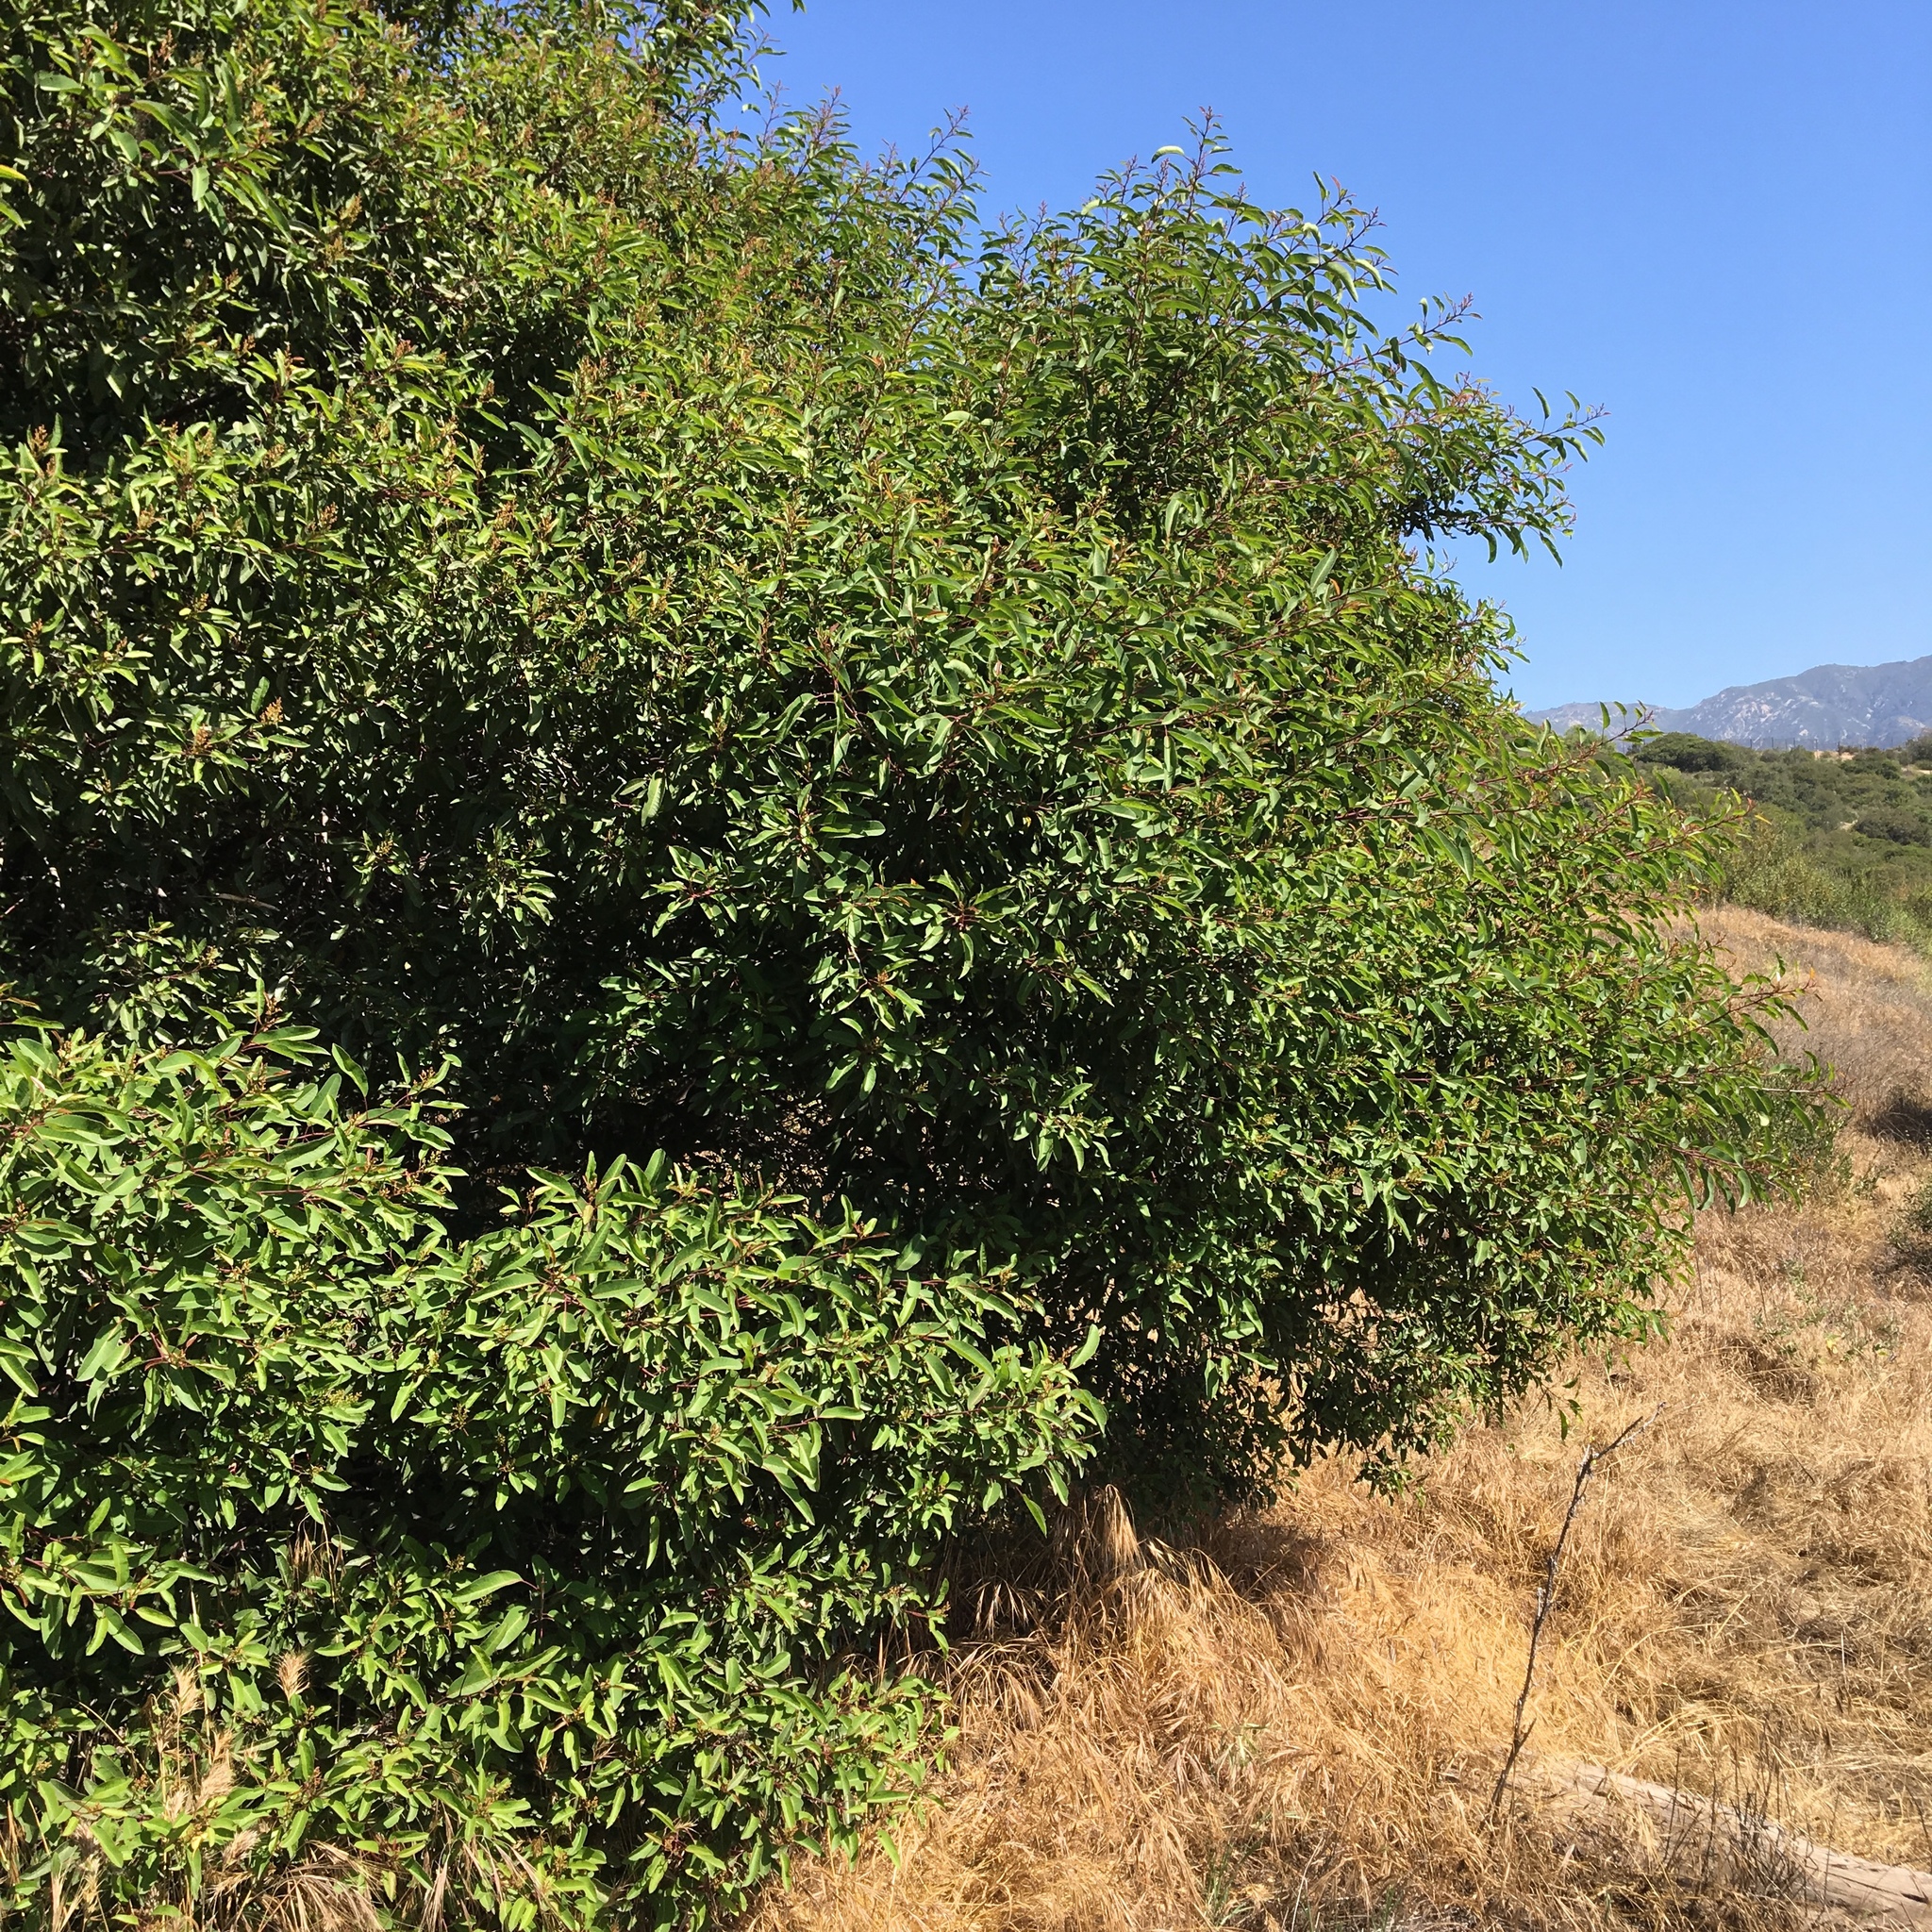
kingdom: Plantae
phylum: Tracheophyta
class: Magnoliopsida
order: Sapindales
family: Anacardiaceae
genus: Malosma
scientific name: Malosma laurina
